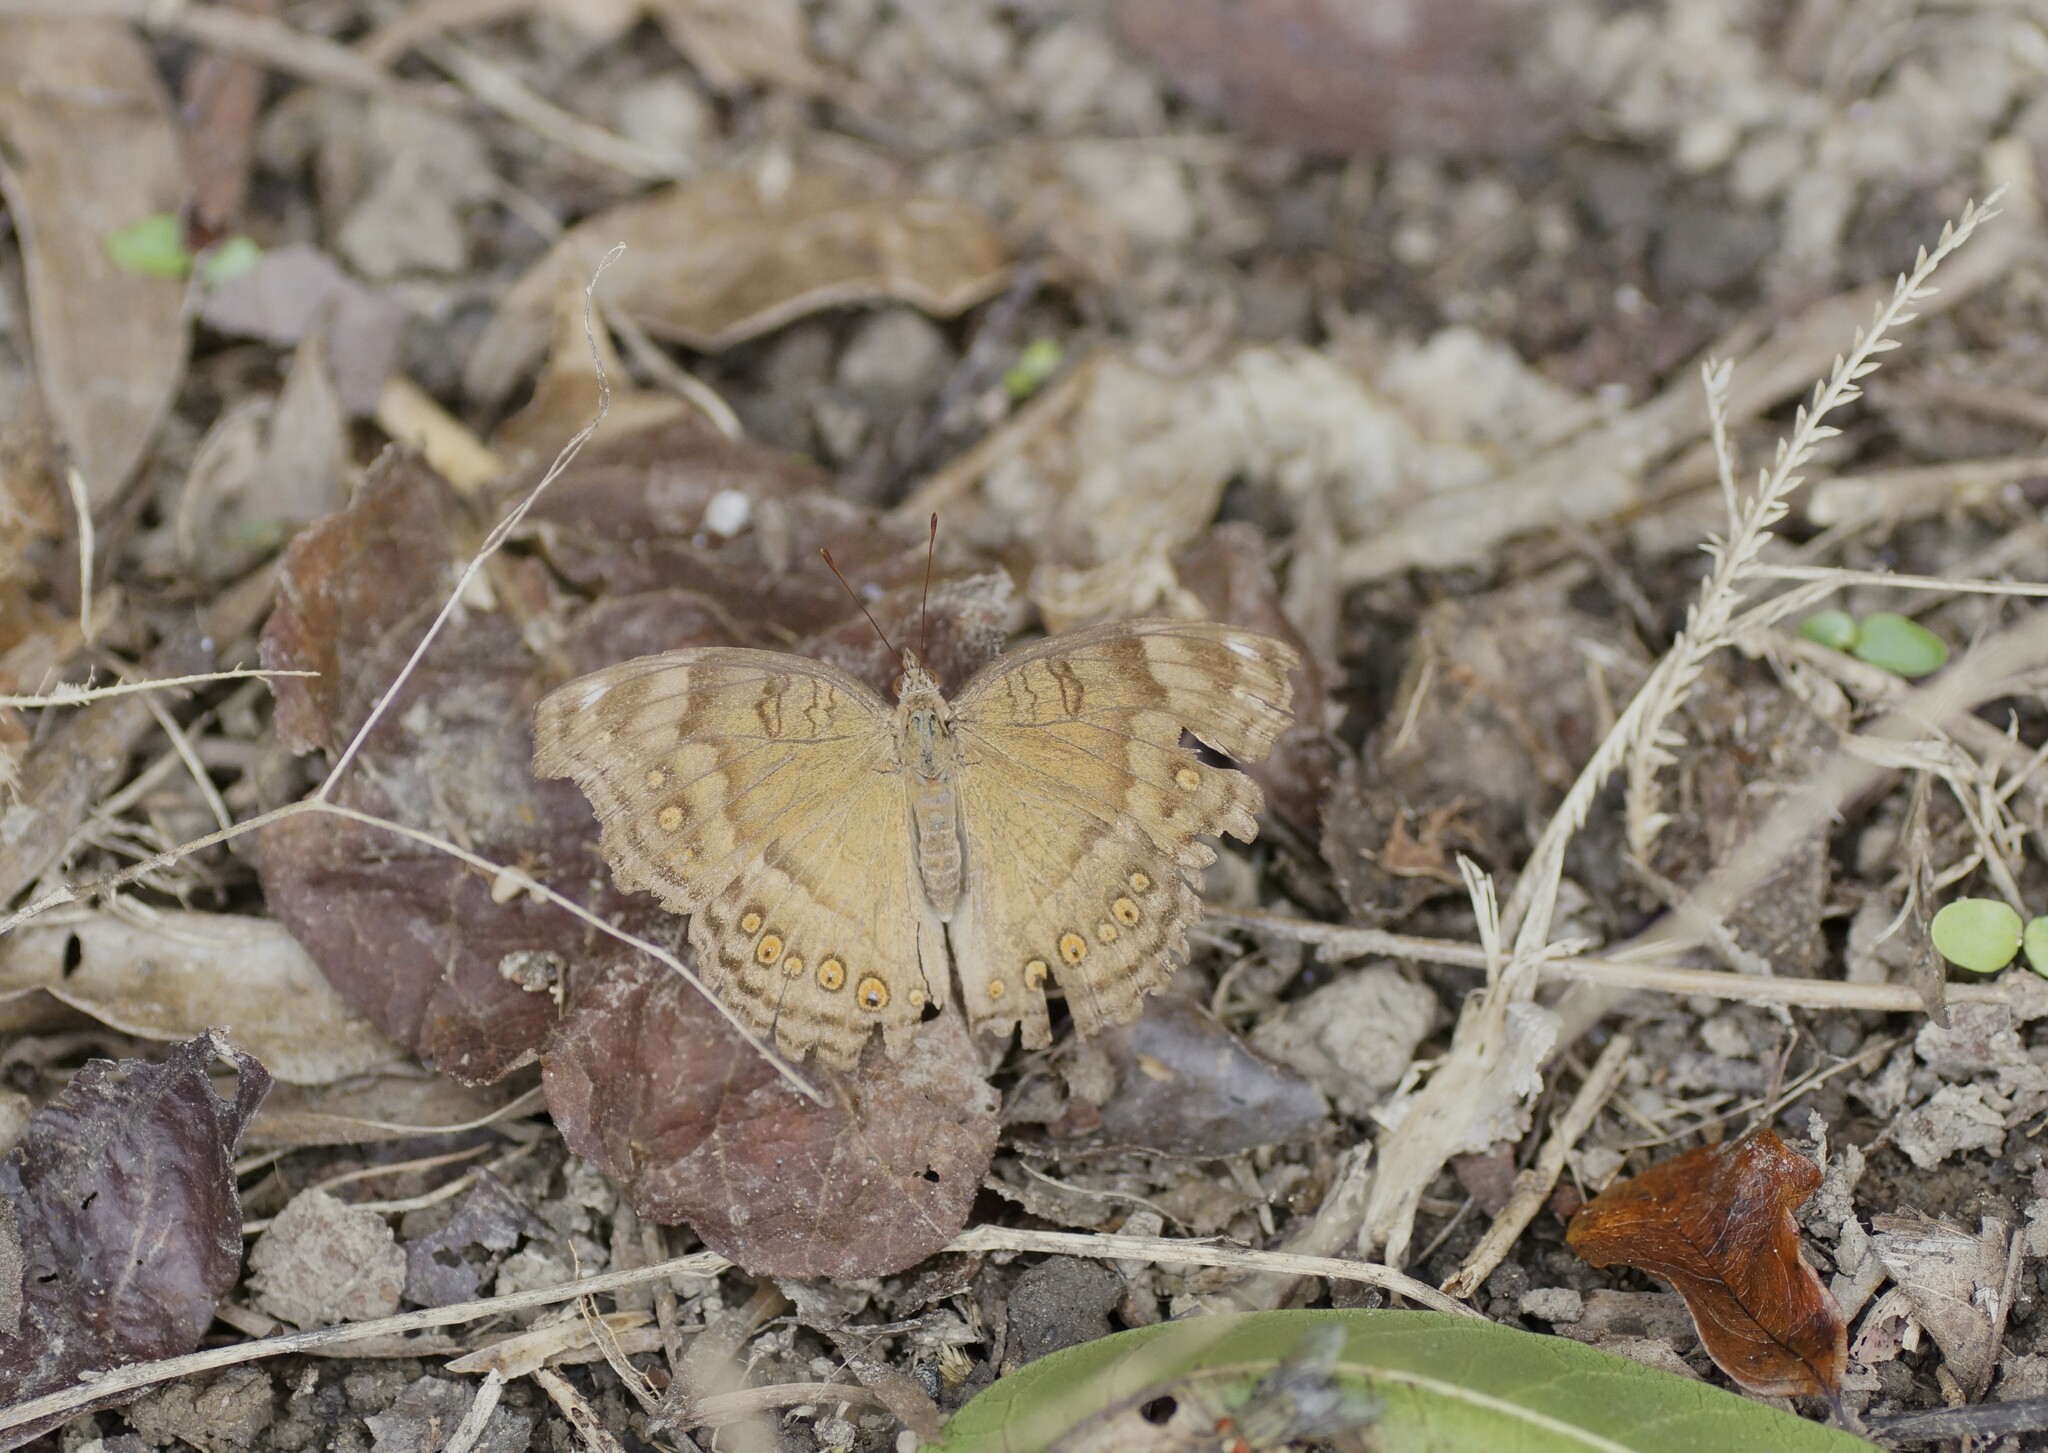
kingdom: Animalia
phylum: Arthropoda
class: Insecta
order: Lepidoptera
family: Nymphalidae
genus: Junonia
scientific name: Junonia hedonia
